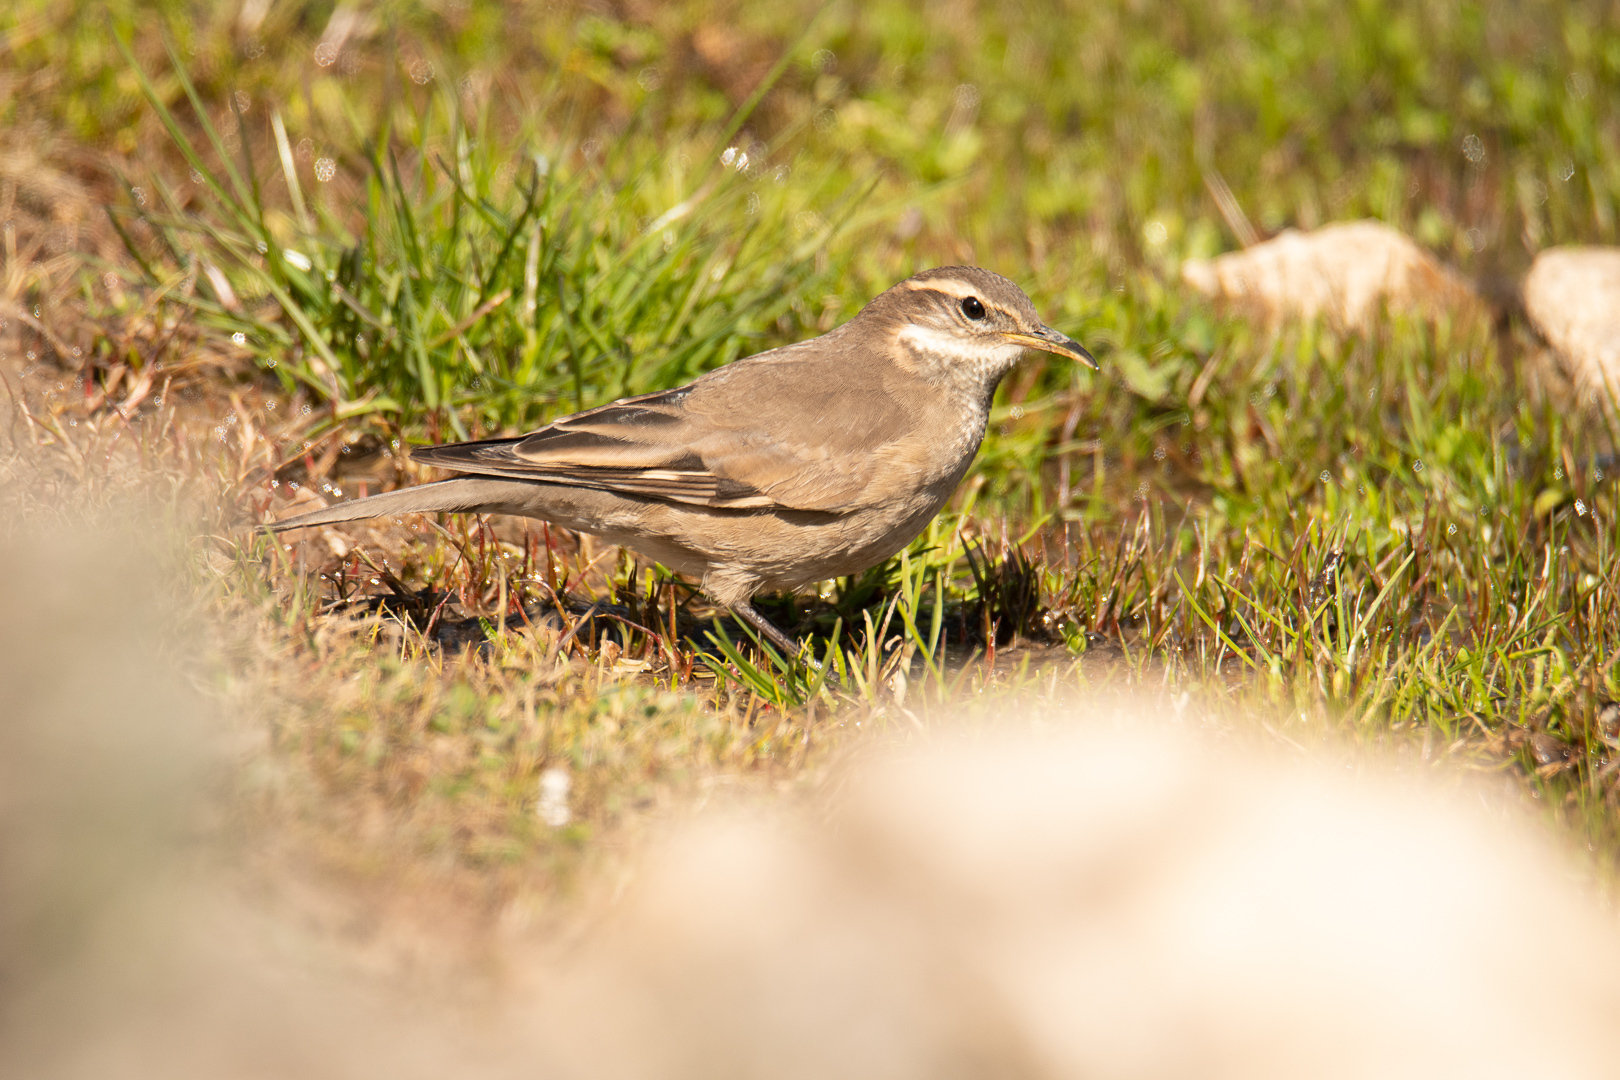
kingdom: Animalia
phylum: Chordata
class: Aves
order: Passeriformes
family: Furnariidae
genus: Cinclodes
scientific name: Cinclodes fuscus
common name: Buff-winged cinclodes
